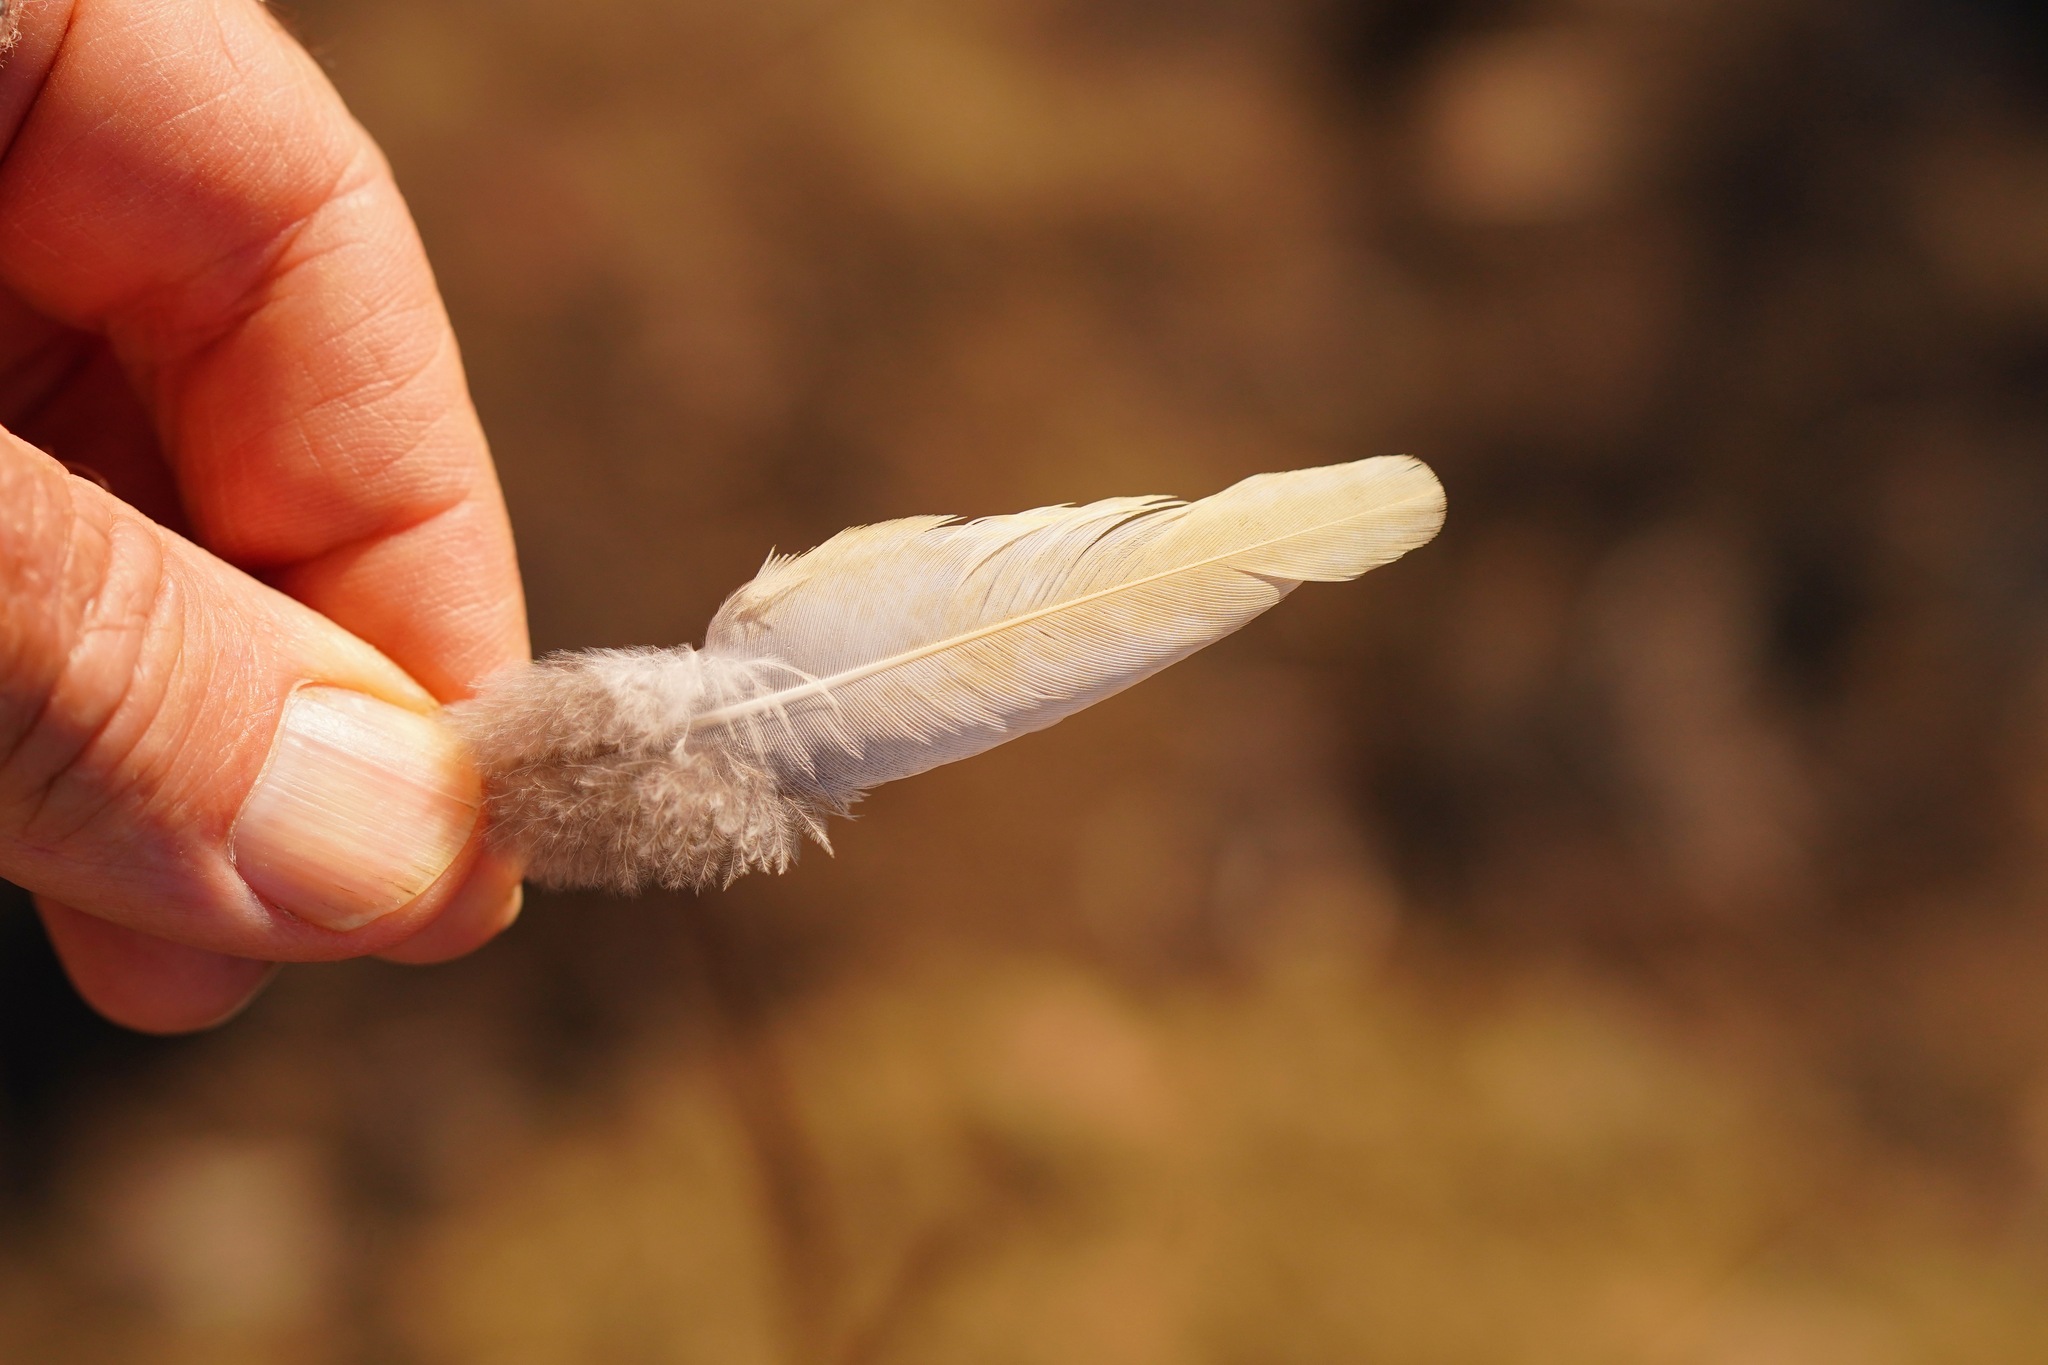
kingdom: Animalia
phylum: Chordata
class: Aves
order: Columbiformes
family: Columbidae
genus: Zenaida
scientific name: Zenaida macroura
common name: Mourning dove
